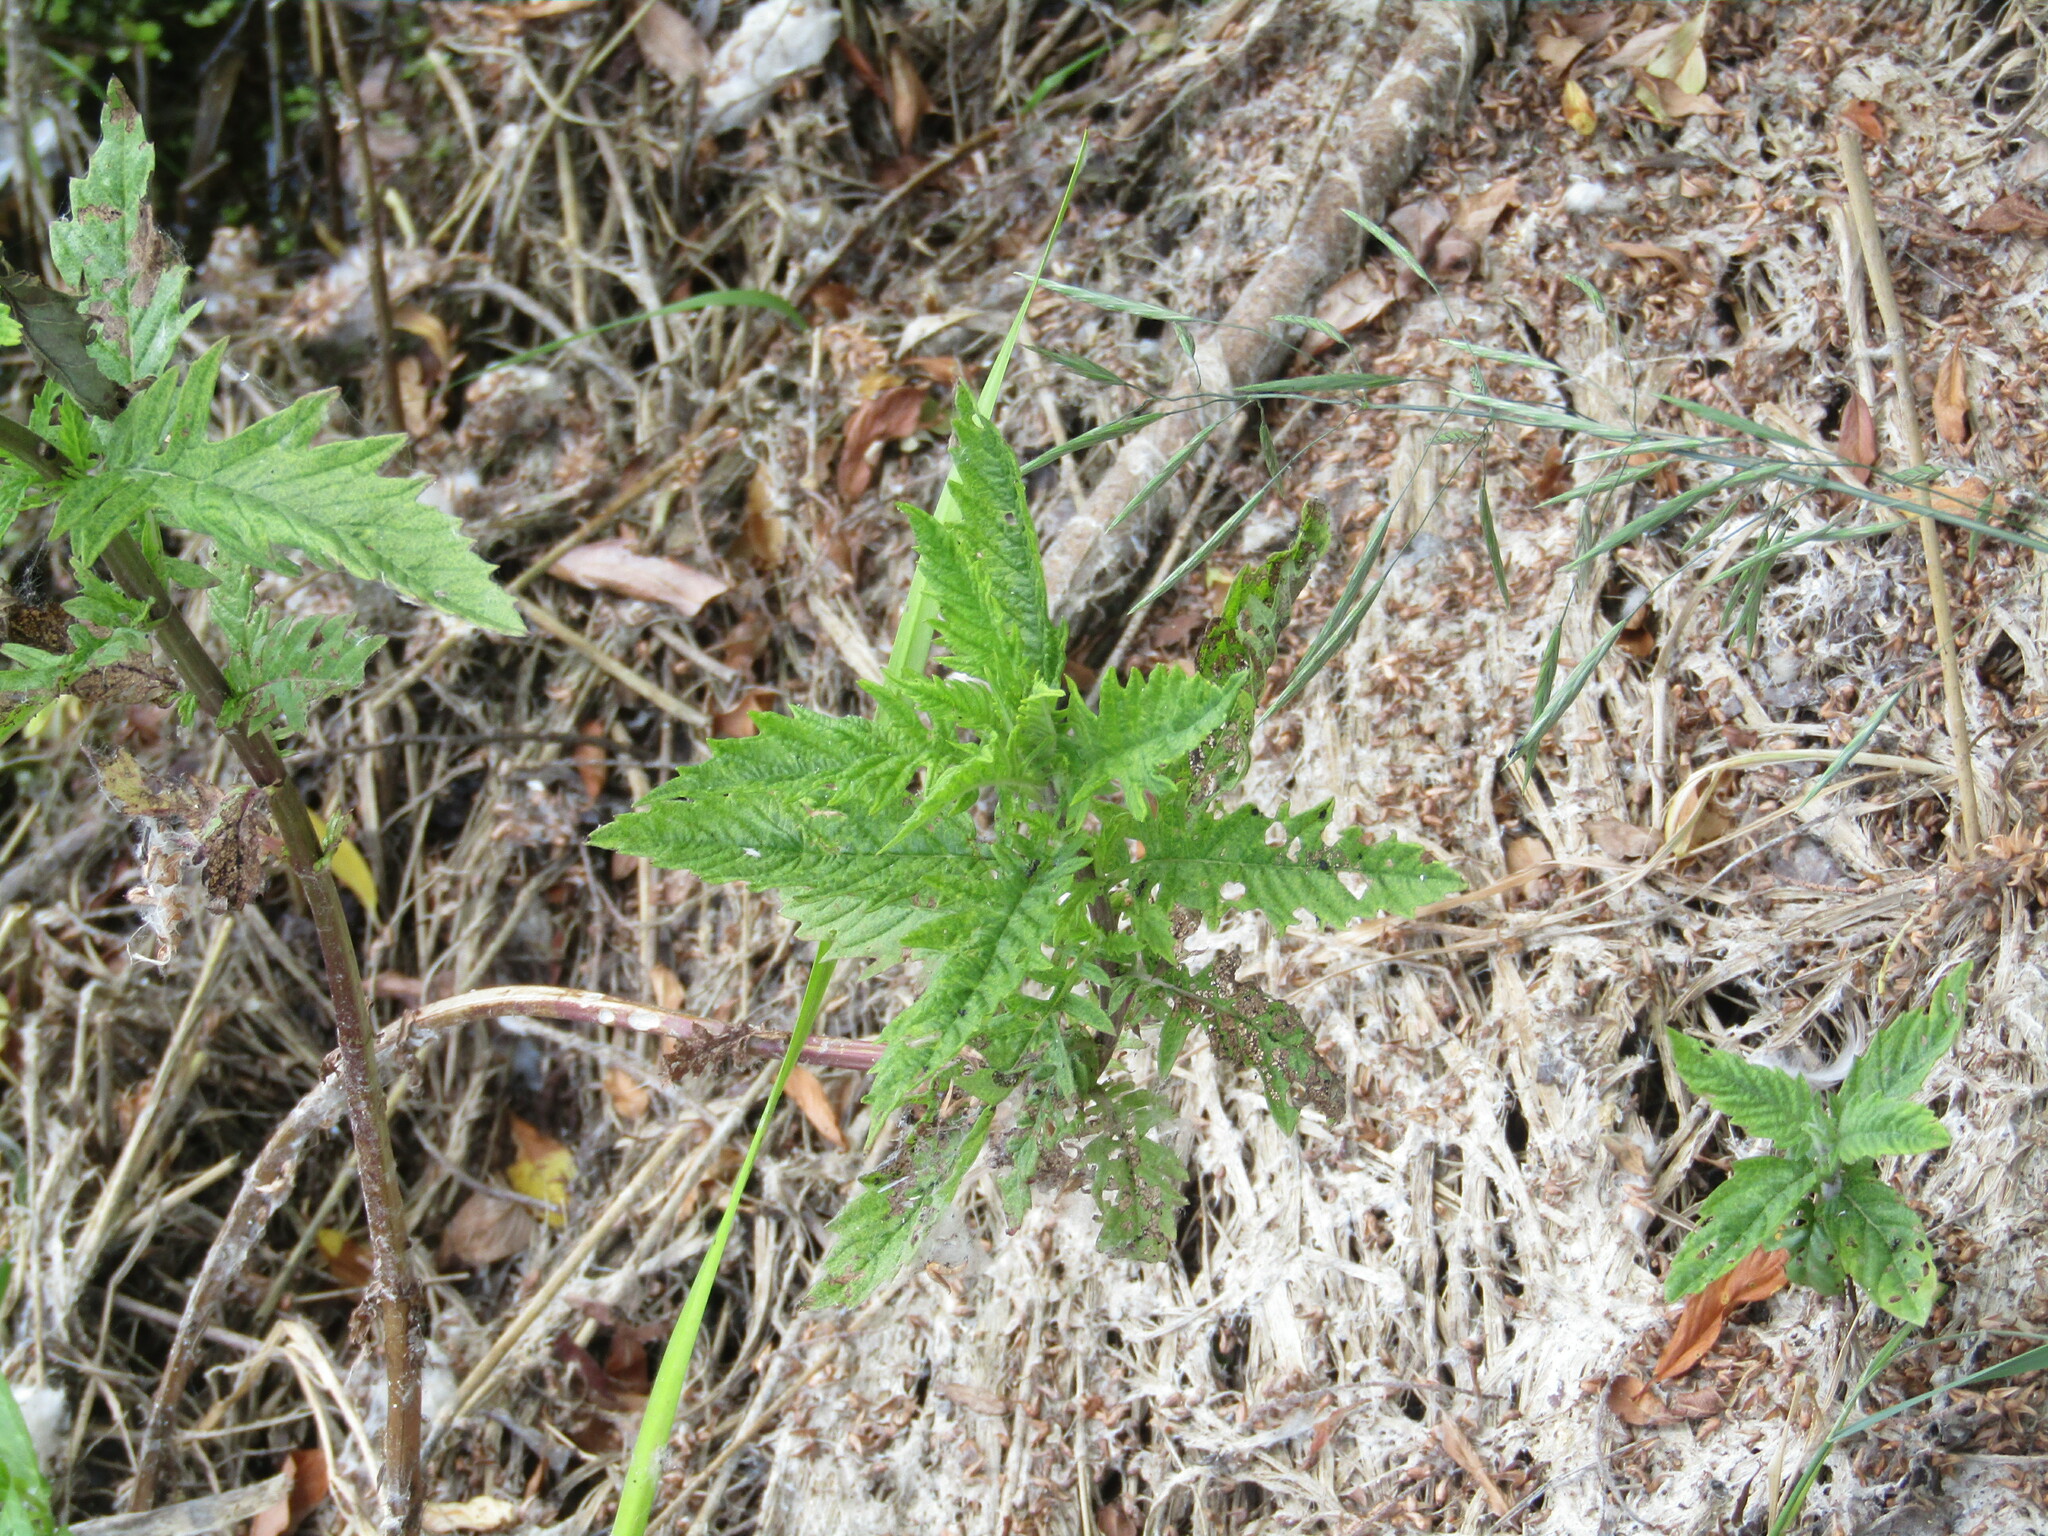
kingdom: Plantae
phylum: Tracheophyta
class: Magnoliopsida
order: Lamiales
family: Lamiaceae
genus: Lycopus
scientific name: Lycopus europaeus
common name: European bugleweed
